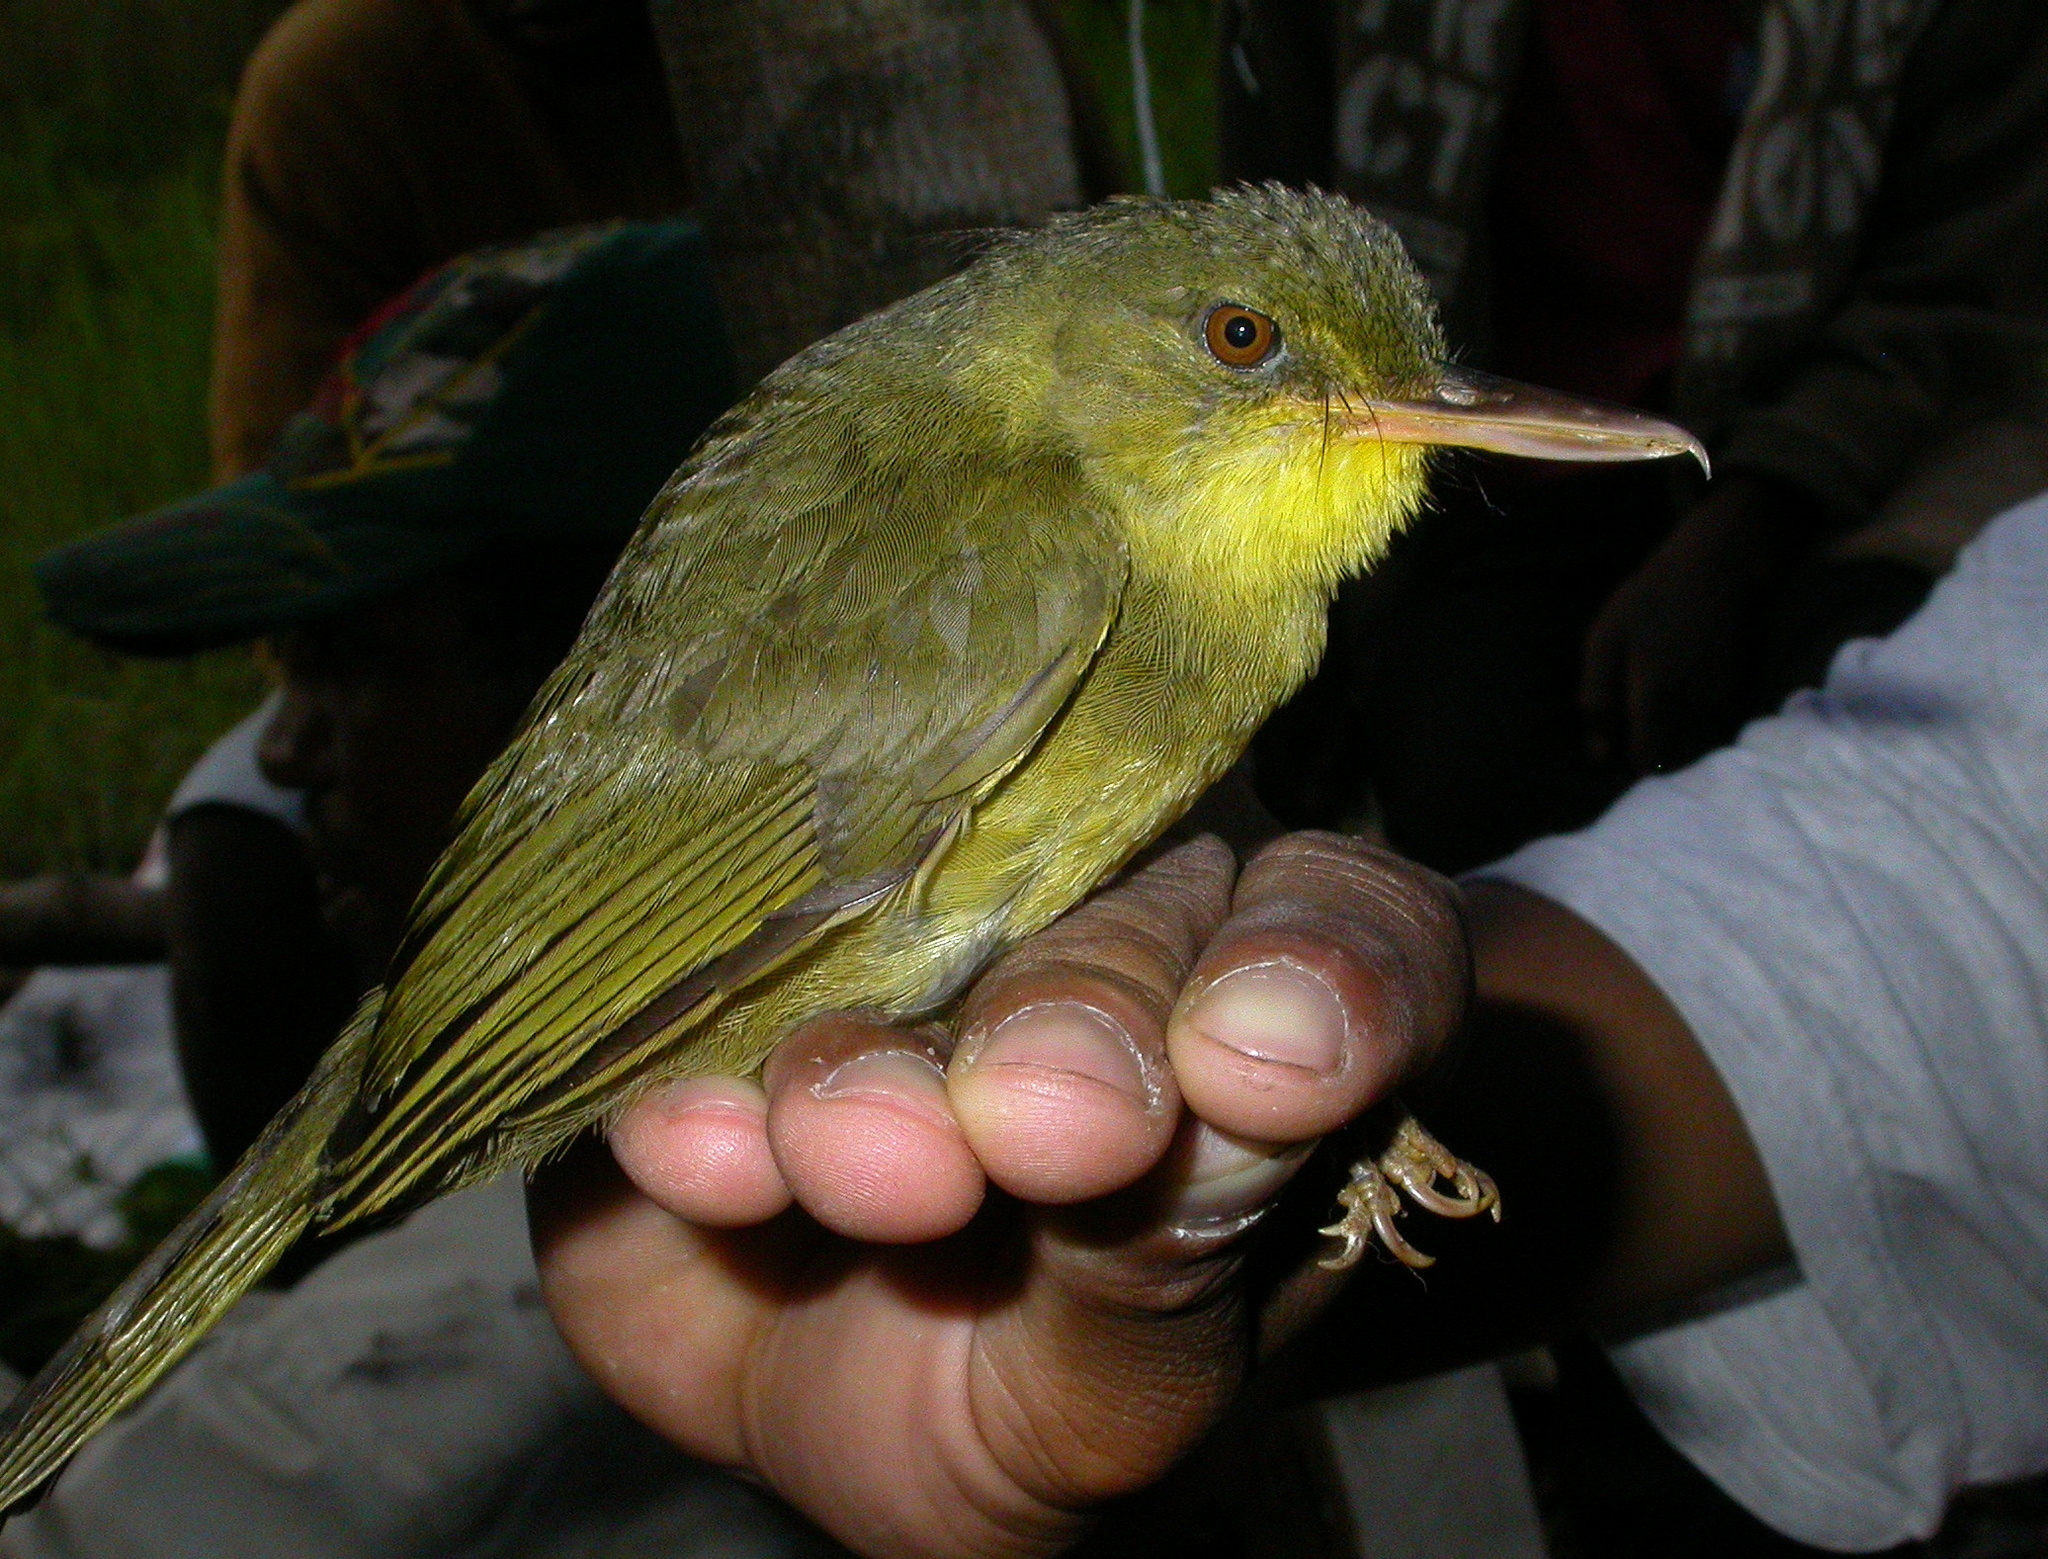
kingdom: Animalia
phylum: Chordata
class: Aves
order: Passeriformes
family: Bernieridae
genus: Bernieria
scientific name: Bernieria madagascariensis
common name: Long-billed bernieria
